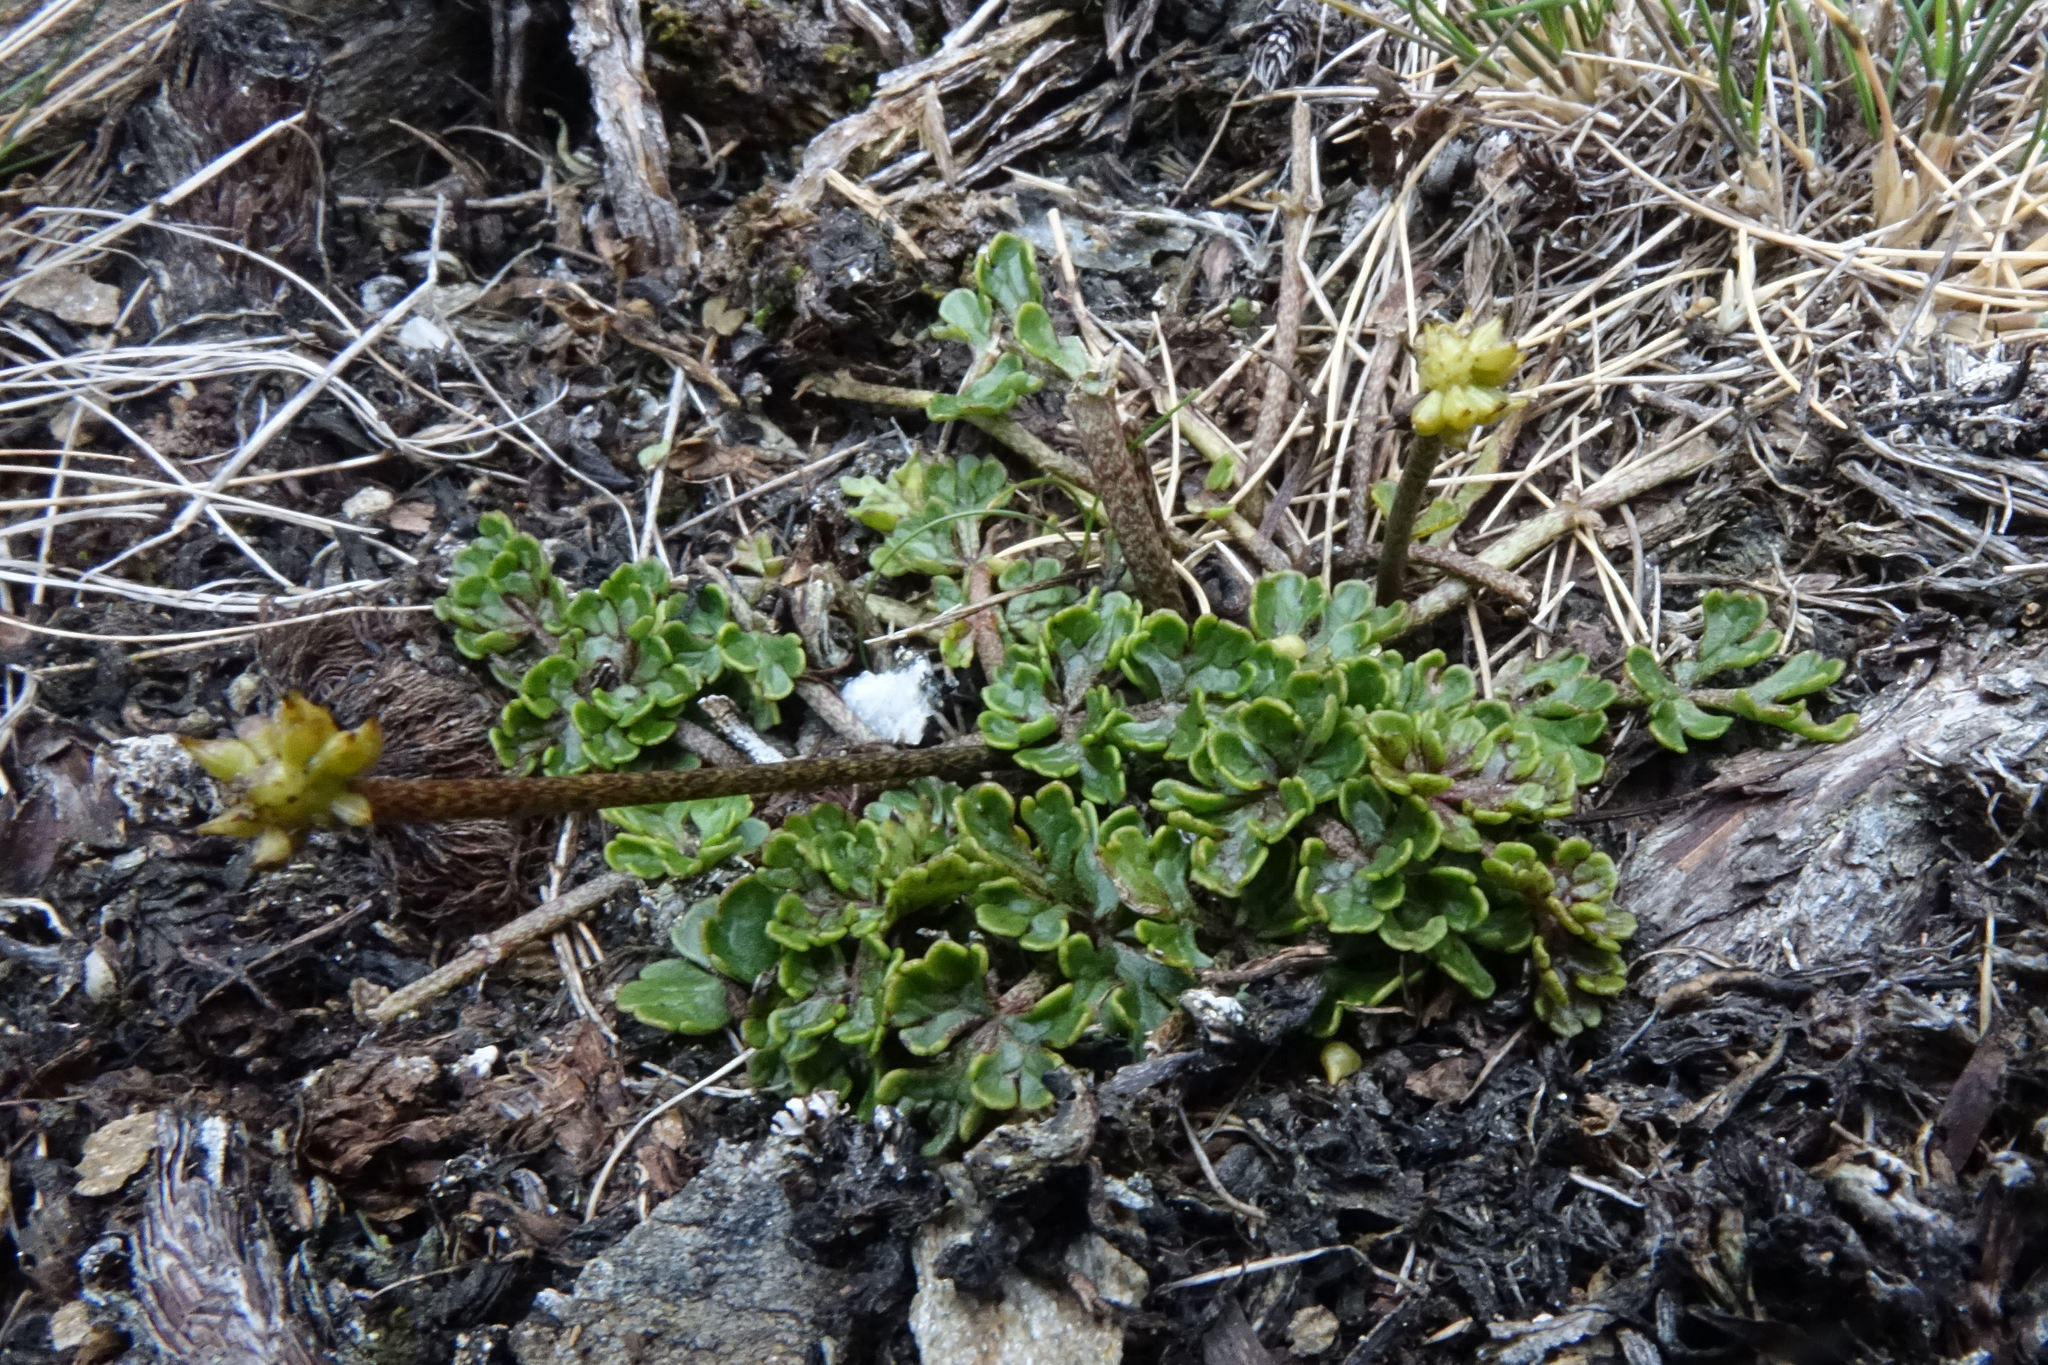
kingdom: Plantae
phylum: Tracheophyta
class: Magnoliopsida
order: Ranunculales
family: Ranunculaceae
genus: Ranunculus
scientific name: Ranunculus enysii
